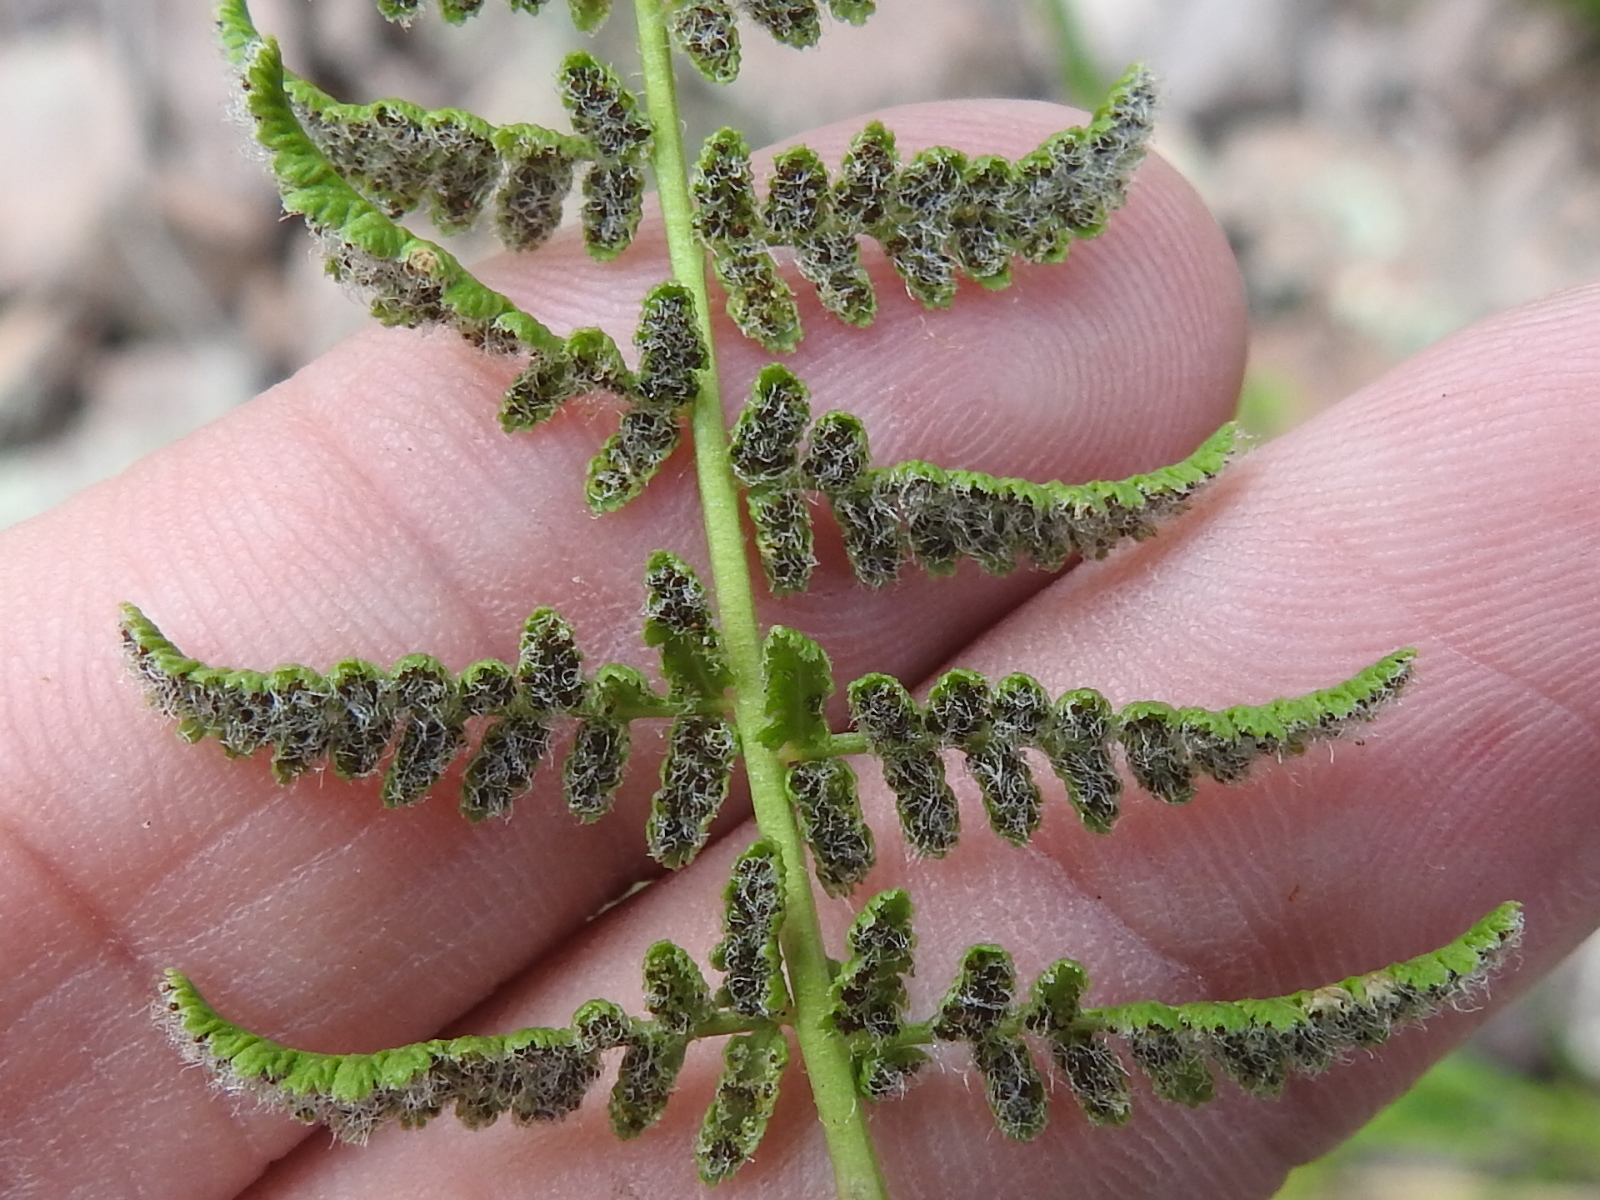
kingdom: Plantae
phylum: Tracheophyta
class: Polypodiopsida
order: Polypodiales
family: Woodsiaceae
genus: Physematium
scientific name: Physematium phillipsii
